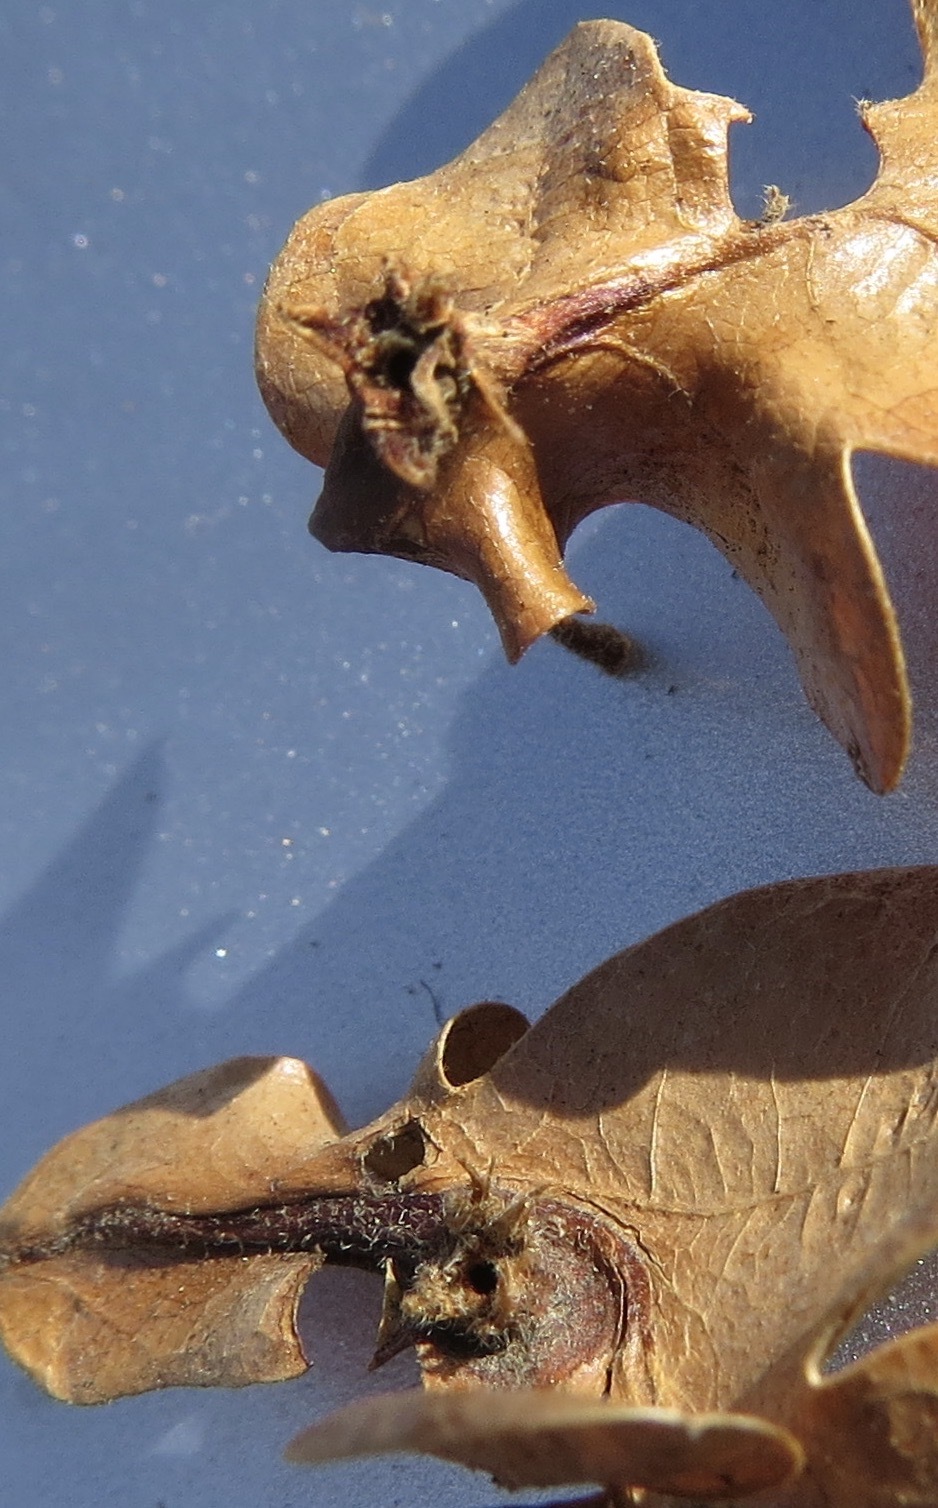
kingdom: Animalia
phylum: Arthropoda
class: Insecta
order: Hymenoptera
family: Cynipidae
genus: Andricus
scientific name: Andricus
